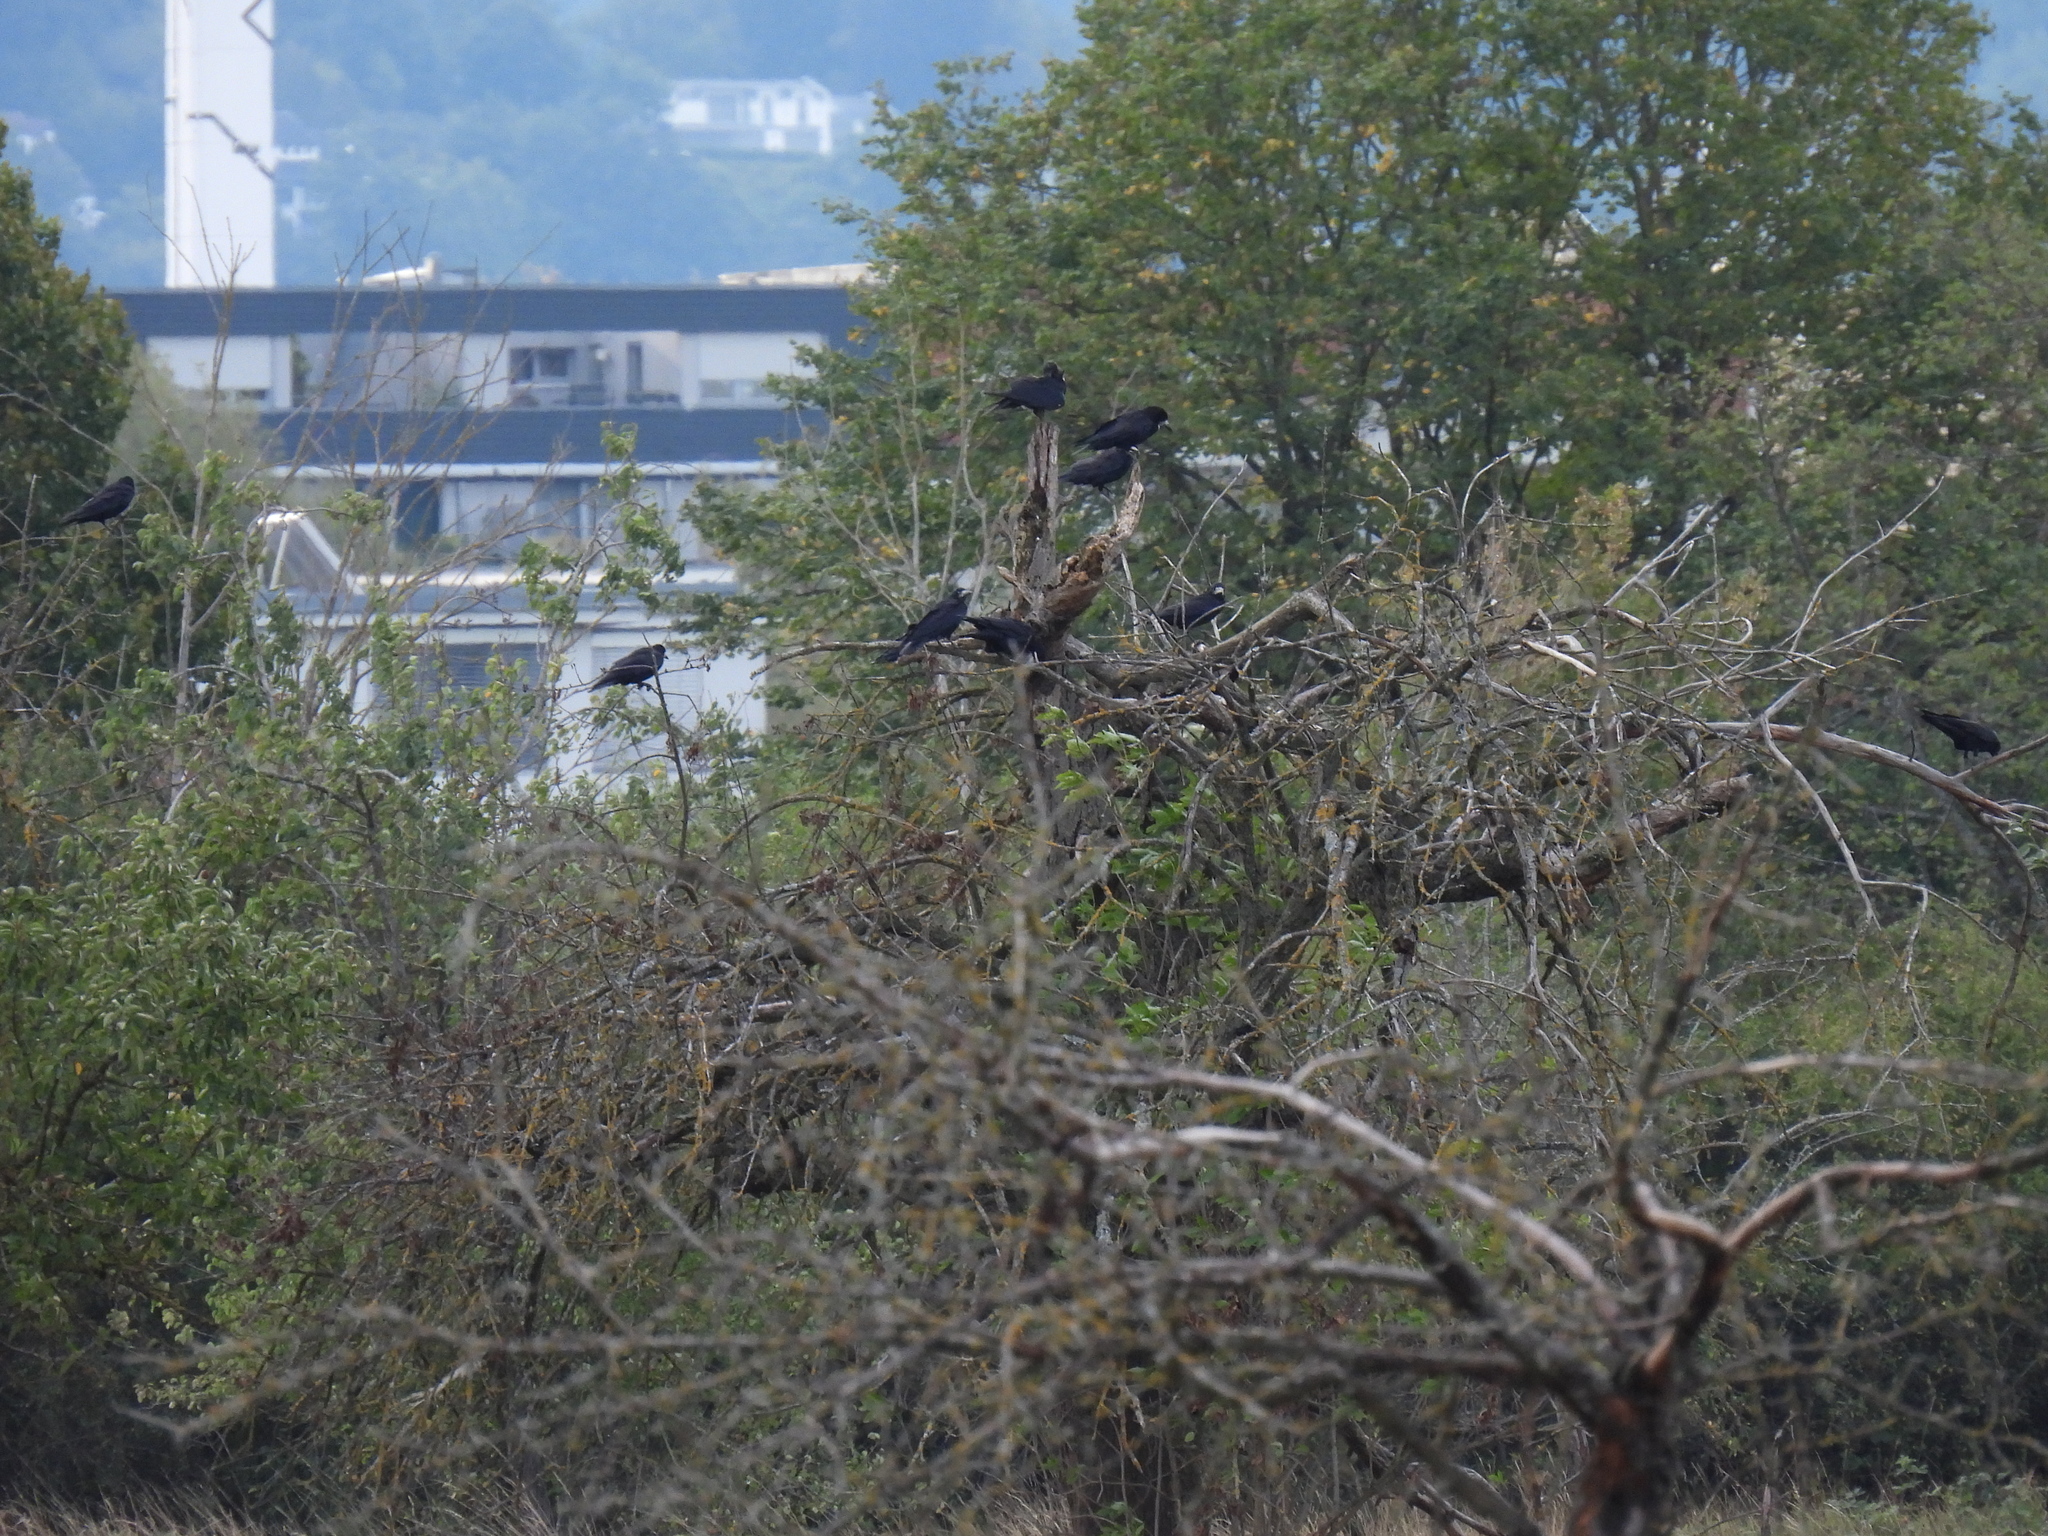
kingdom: Animalia
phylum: Chordata
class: Aves
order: Passeriformes
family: Corvidae
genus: Corvus
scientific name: Corvus frugilegus
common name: Rook
